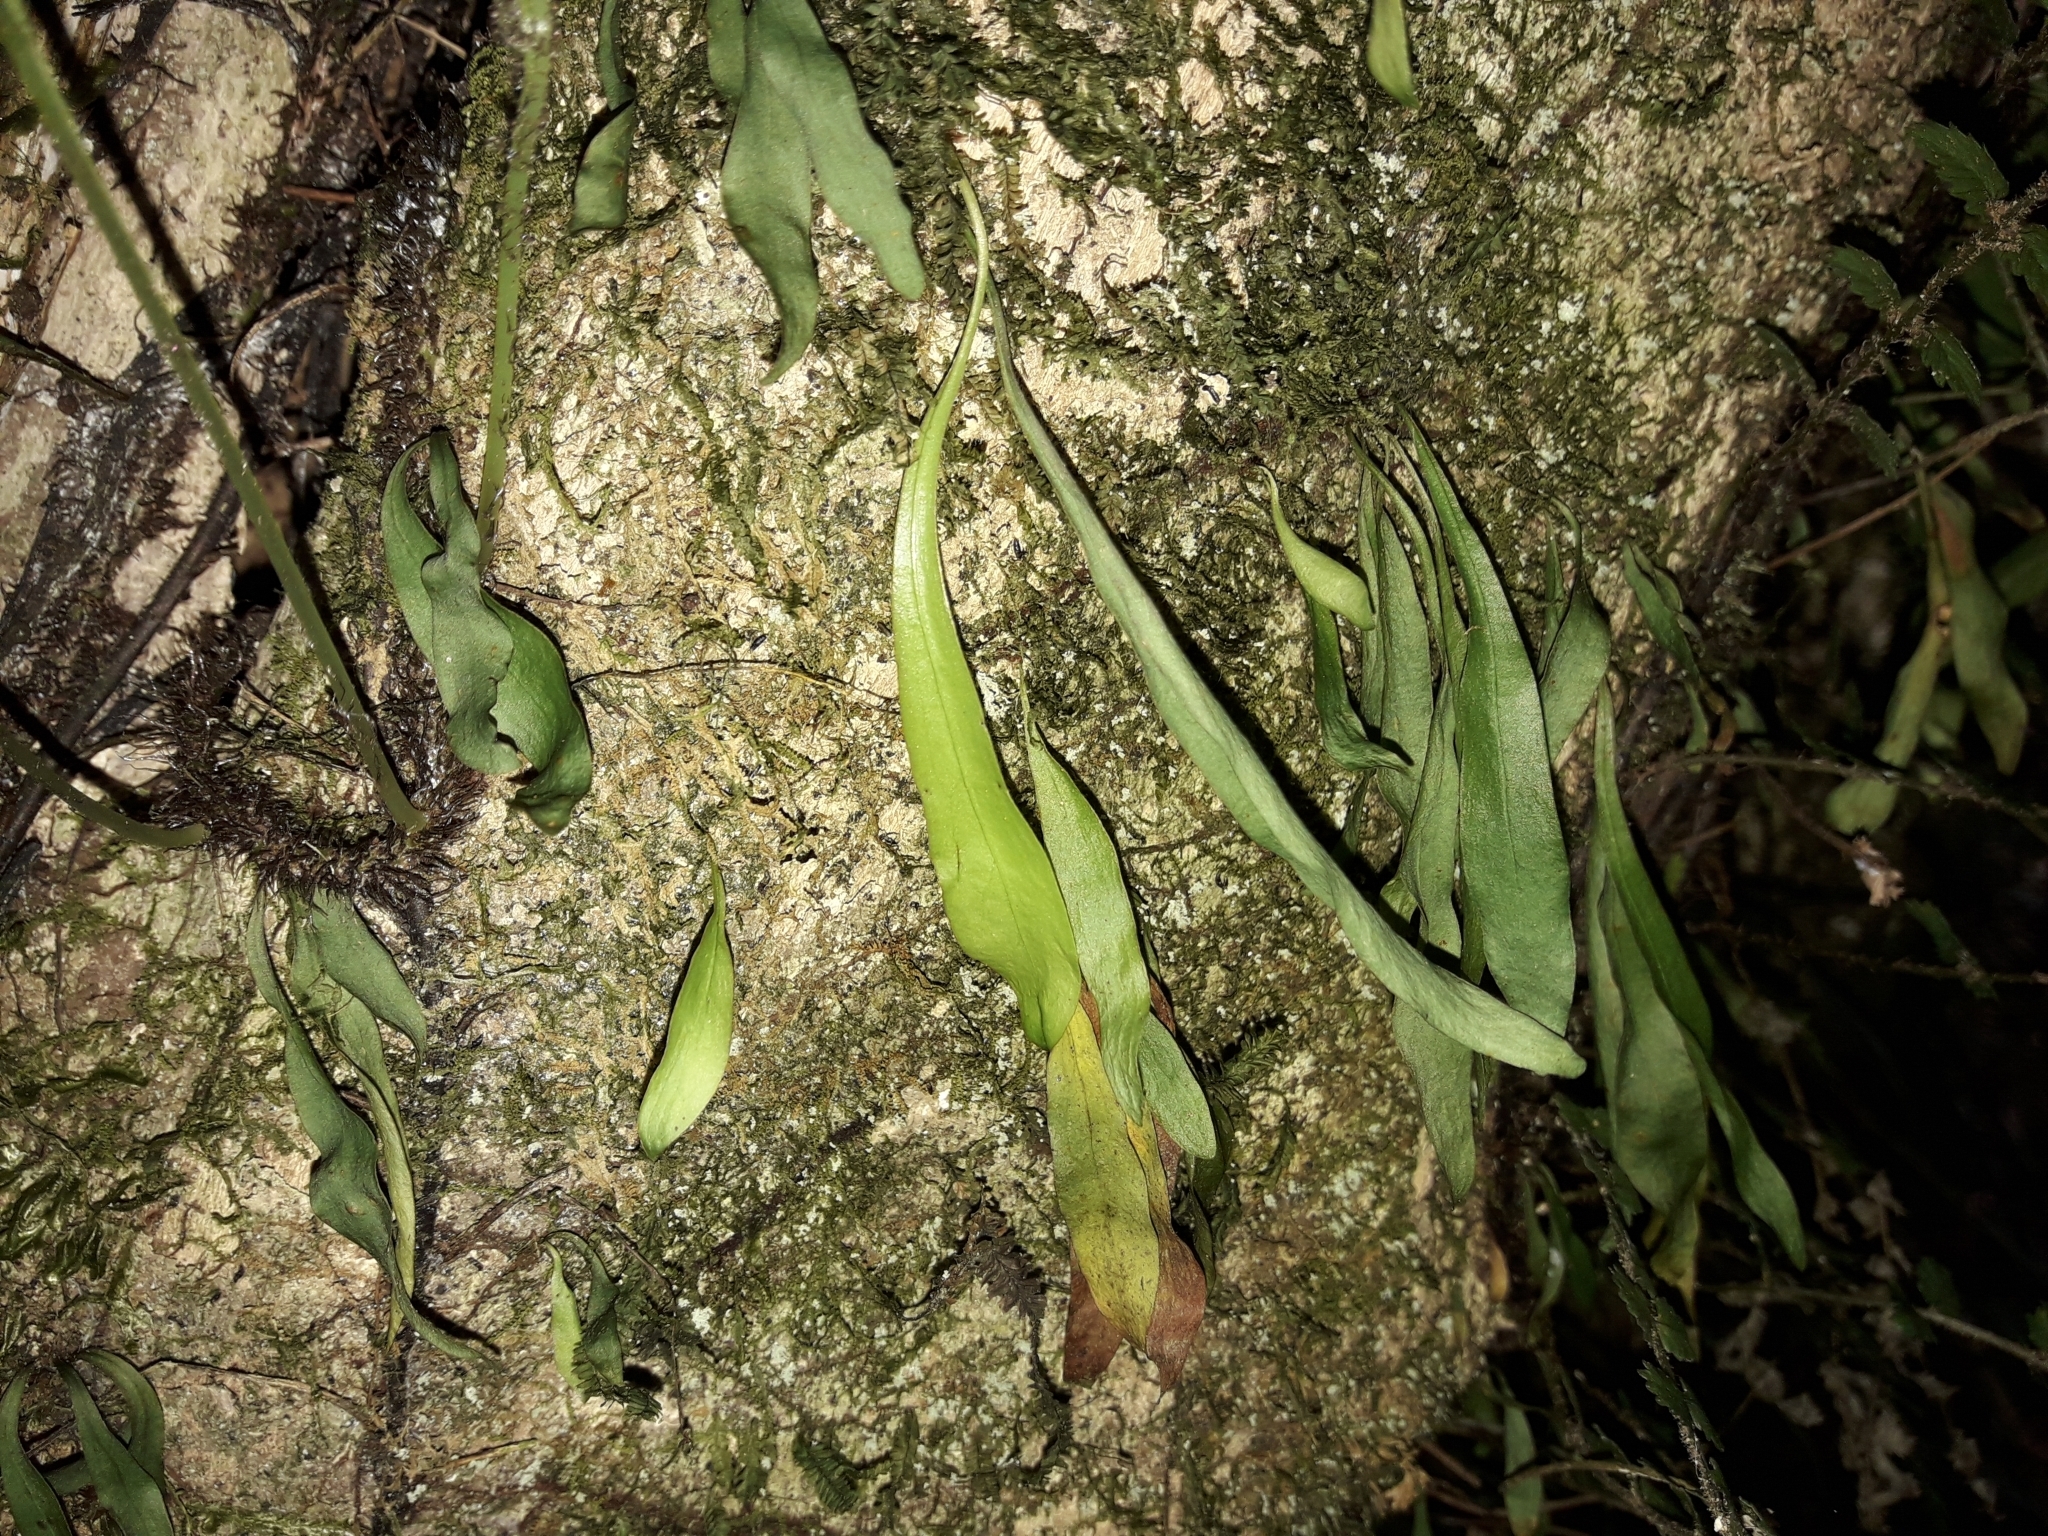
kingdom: Plantae
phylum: Tracheophyta
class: Polypodiopsida
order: Polypodiales
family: Polypodiaceae
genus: Loxogramme
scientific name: Loxogramme dictyopteris
